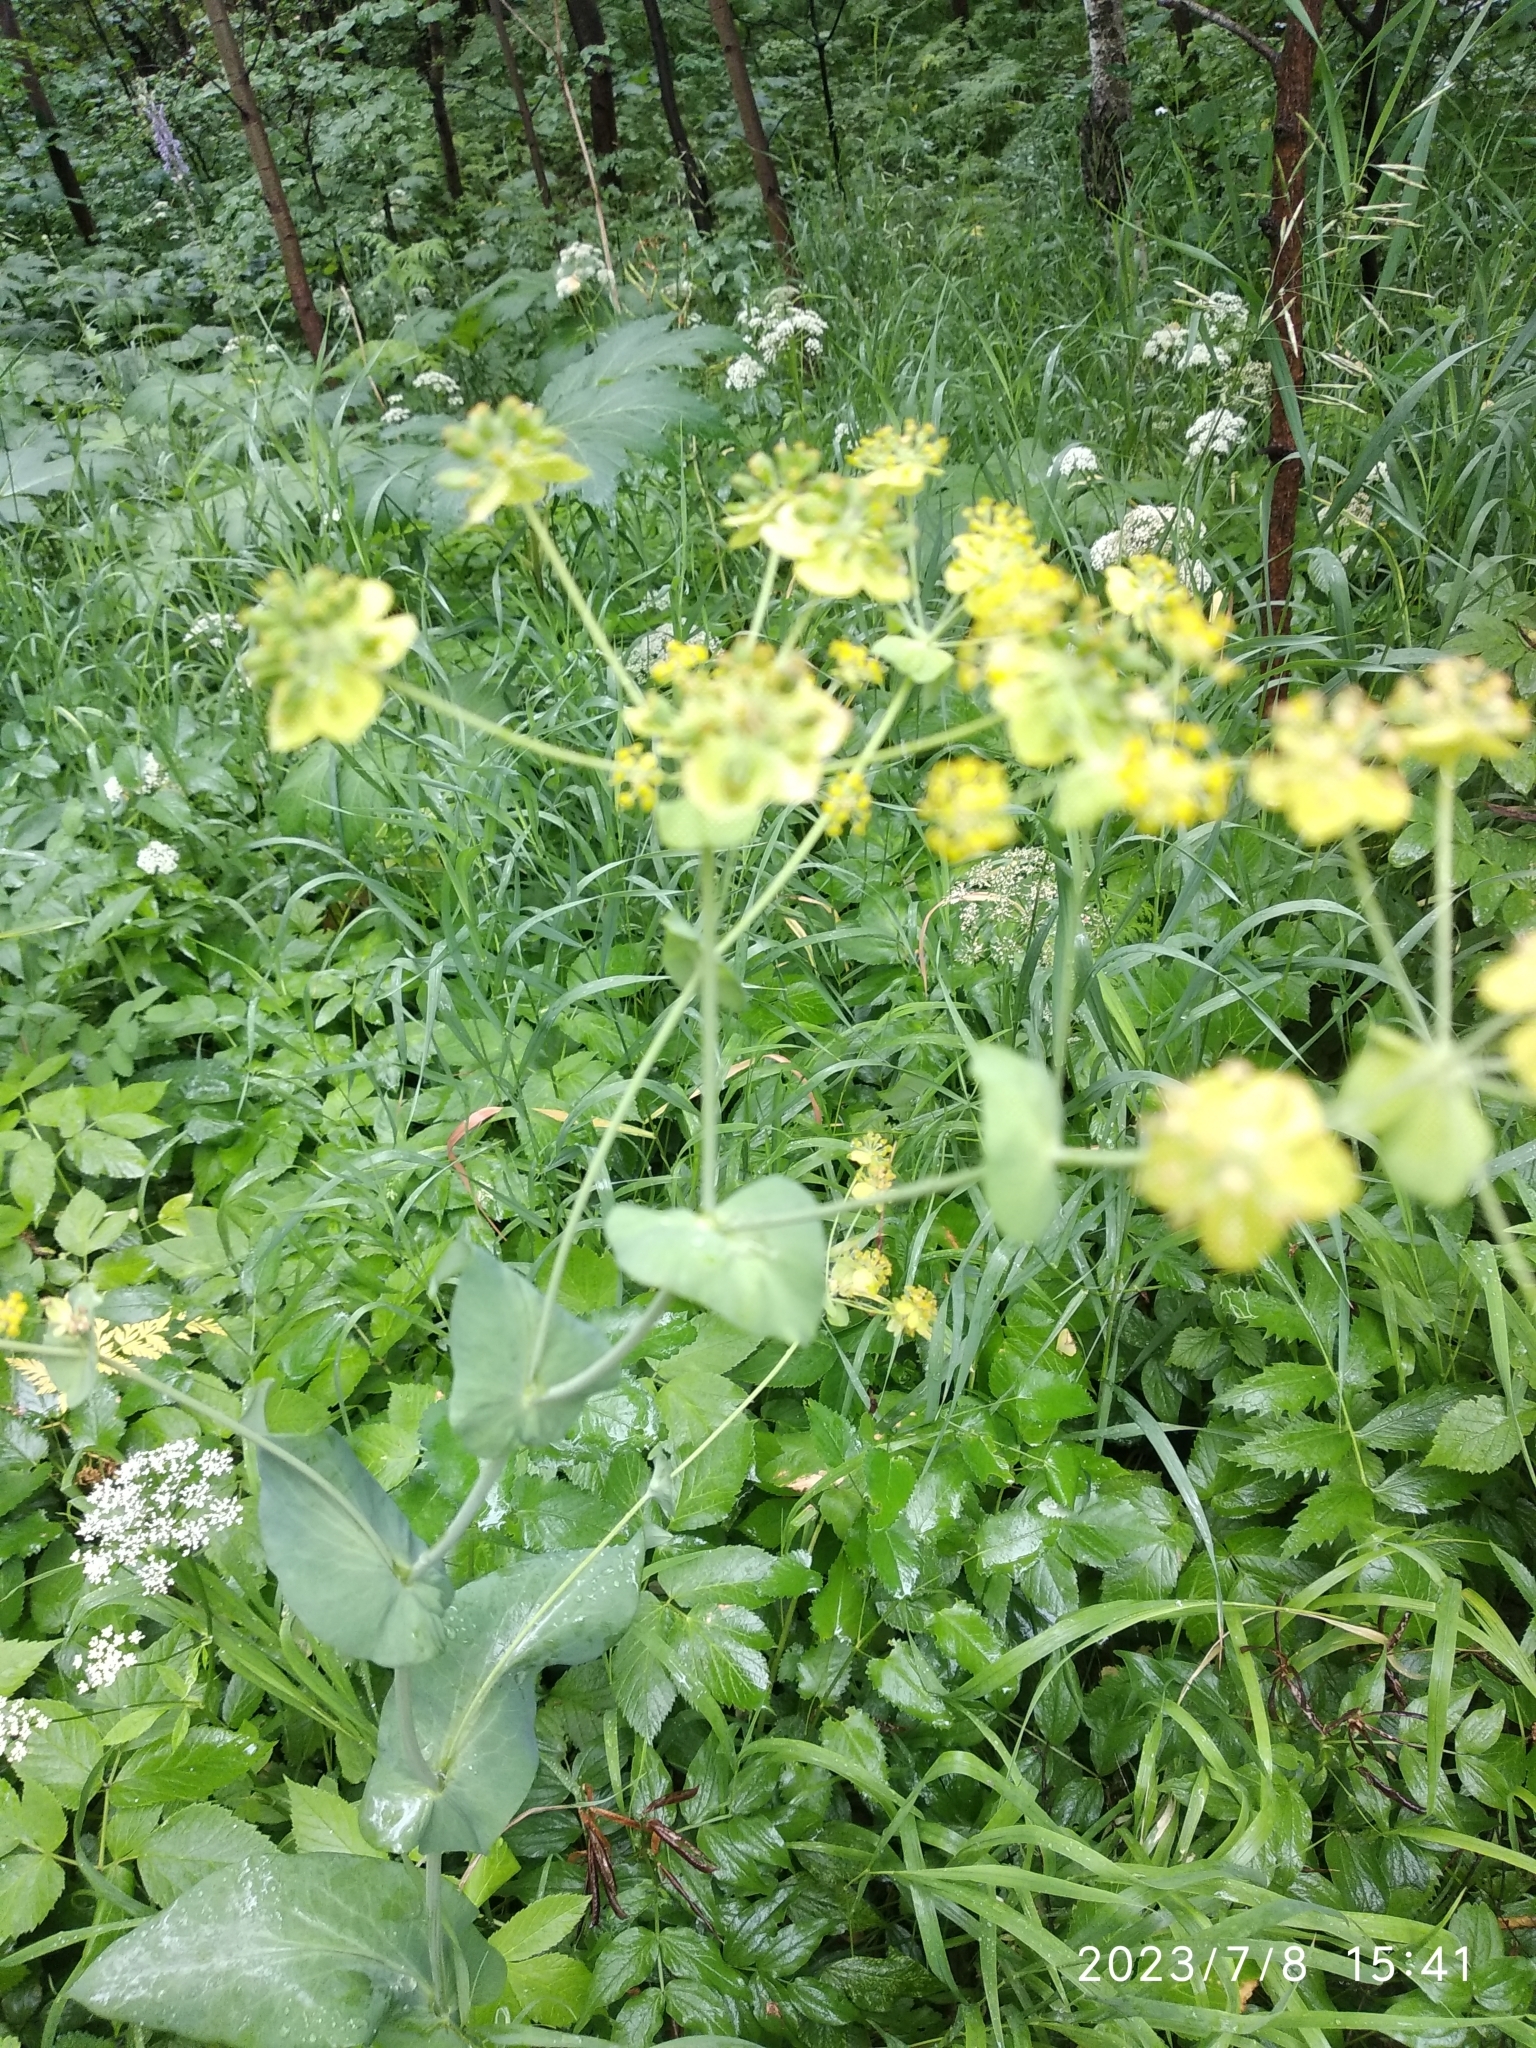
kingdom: Plantae
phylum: Tracheophyta
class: Magnoliopsida
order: Apiales
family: Apiaceae
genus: Bupleurum
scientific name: Bupleurum aureum
